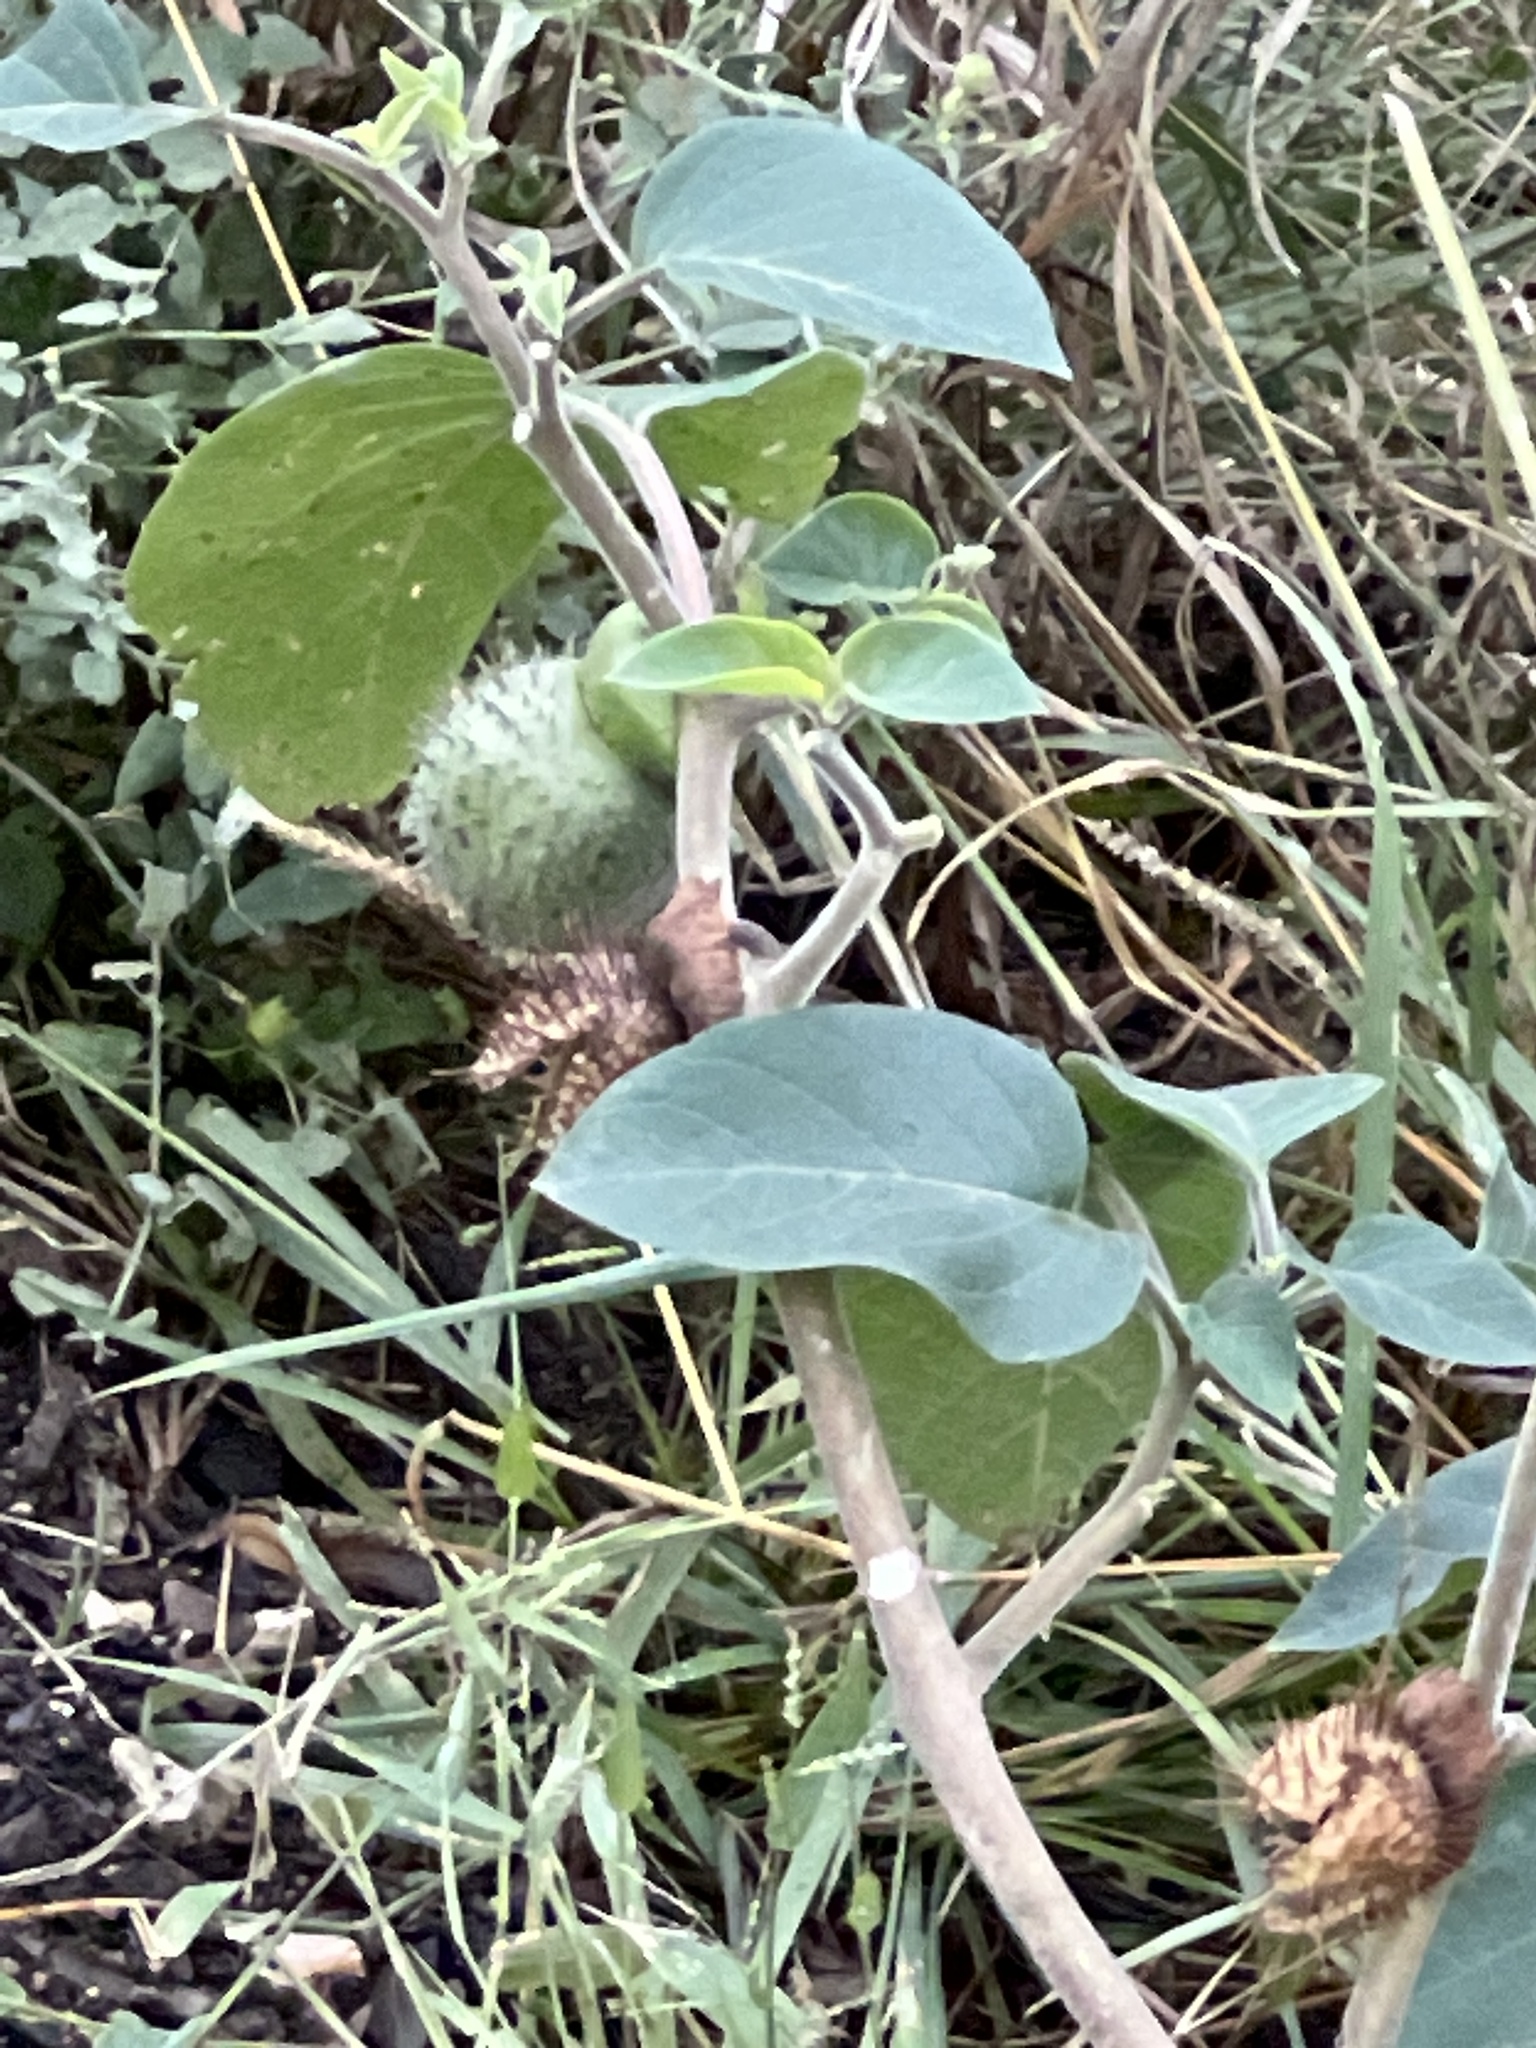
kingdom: Plantae
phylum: Tracheophyta
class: Magnoliopsida
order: Solanales
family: Solanaceae
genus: Datura
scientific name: Datura wrightii
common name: Sacred thorn-apple
